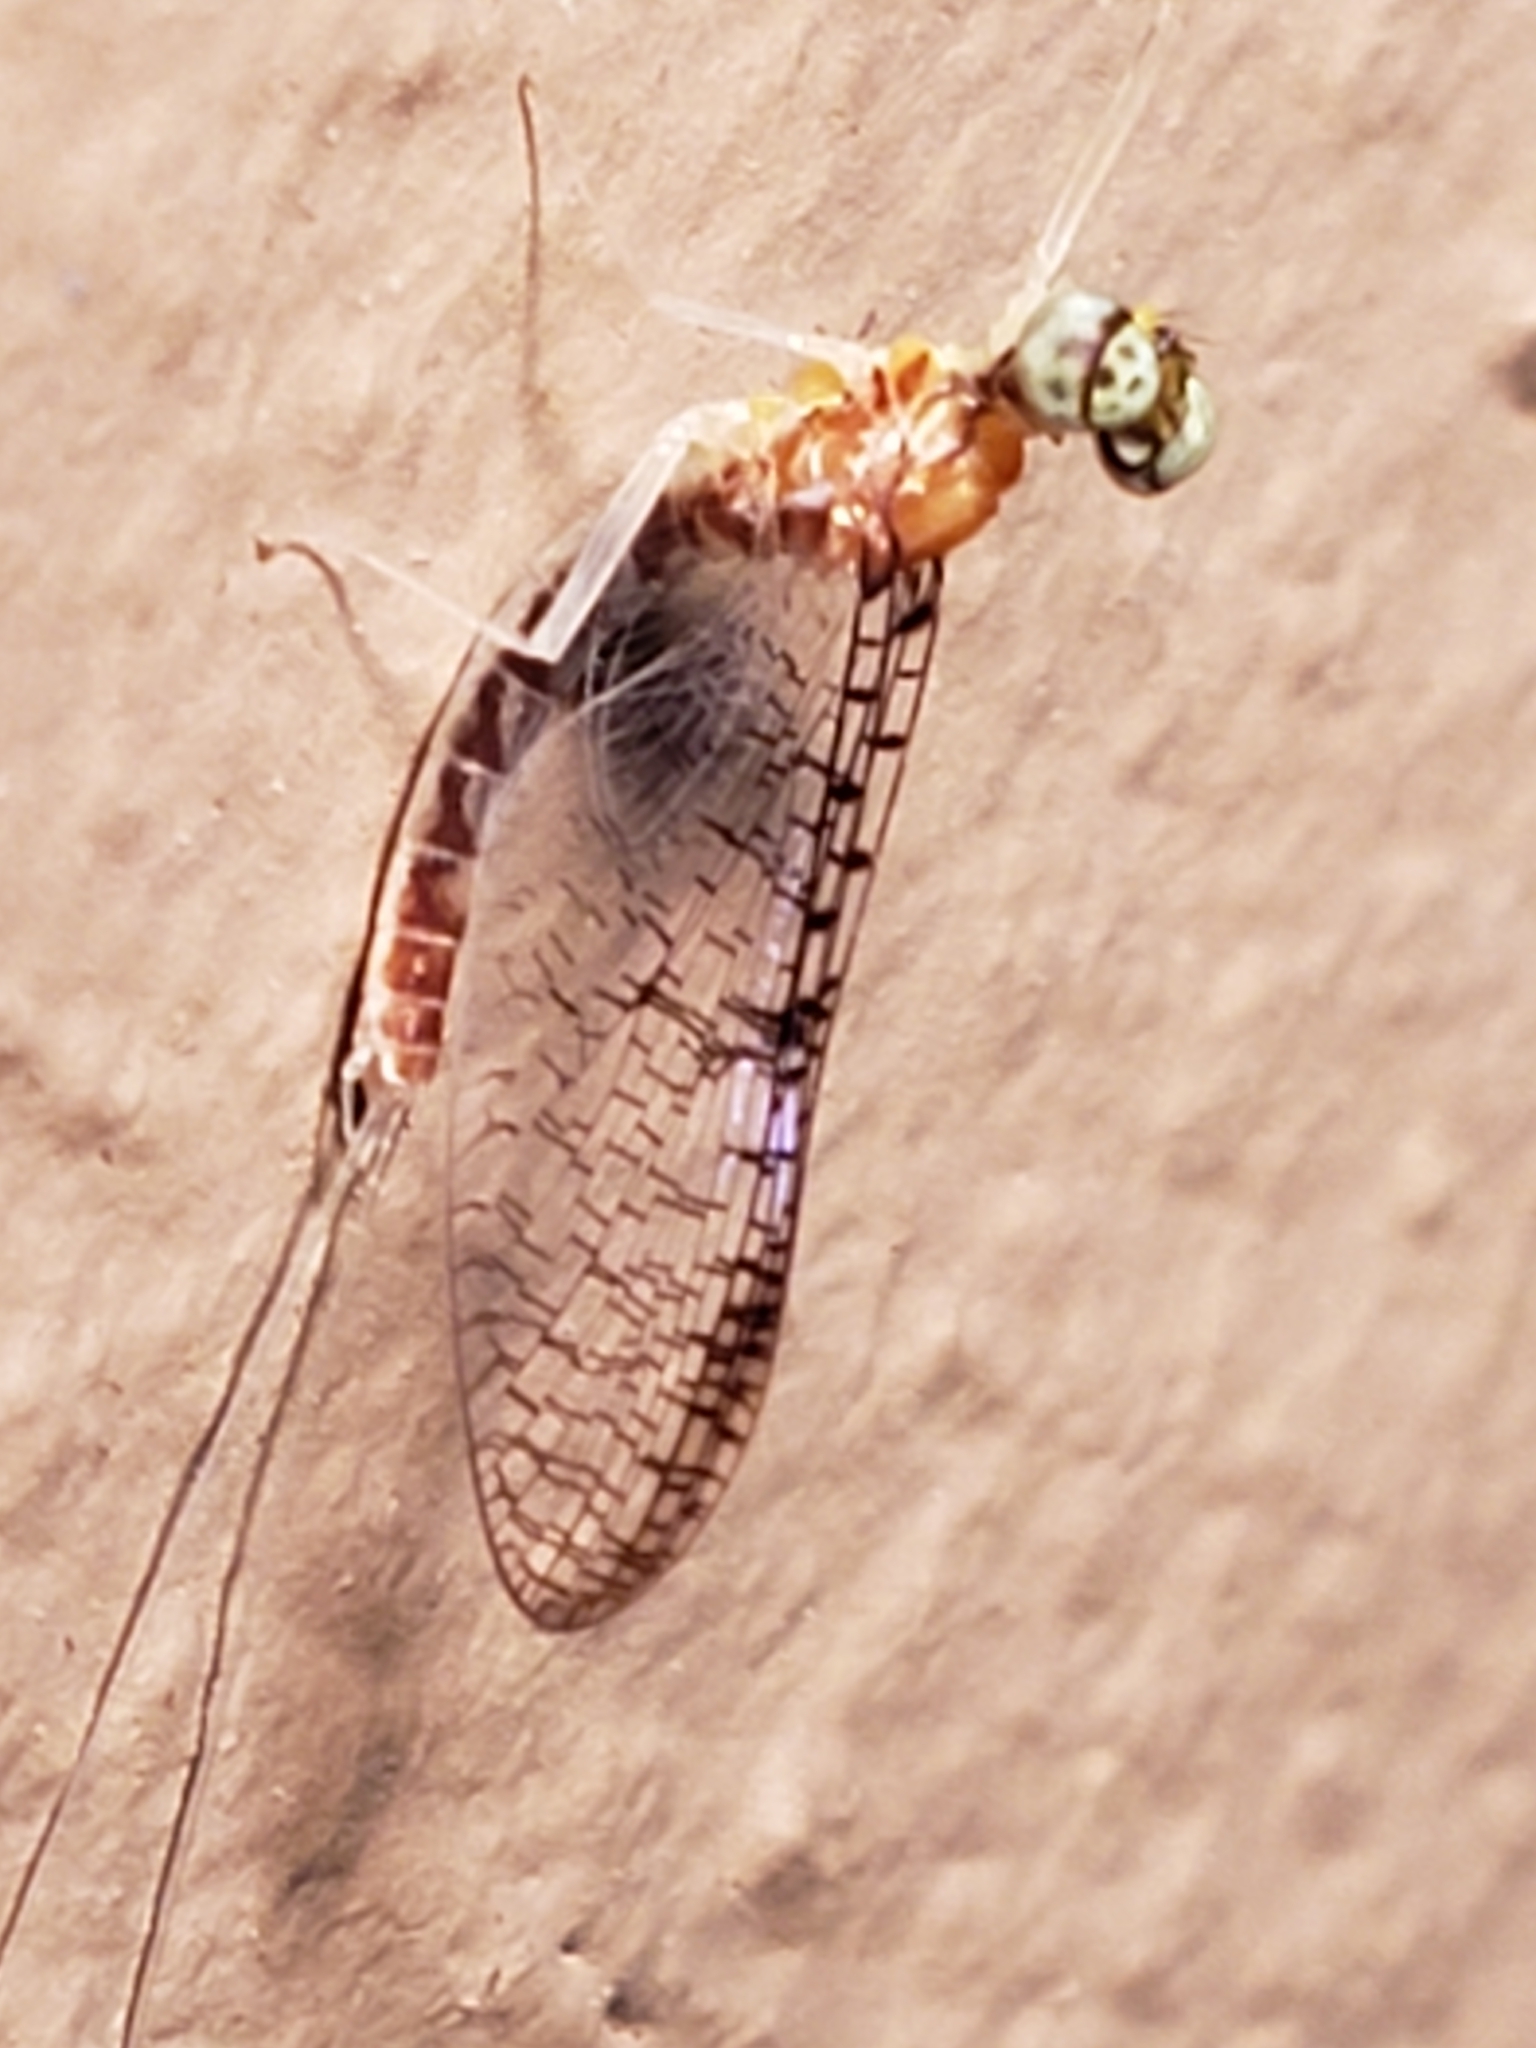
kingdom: Animalia
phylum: Arthropoda
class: Insecta
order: Ephemeroptera
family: Heptageniidae
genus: Leucrocuta
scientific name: Leucrocuta aphrodite
